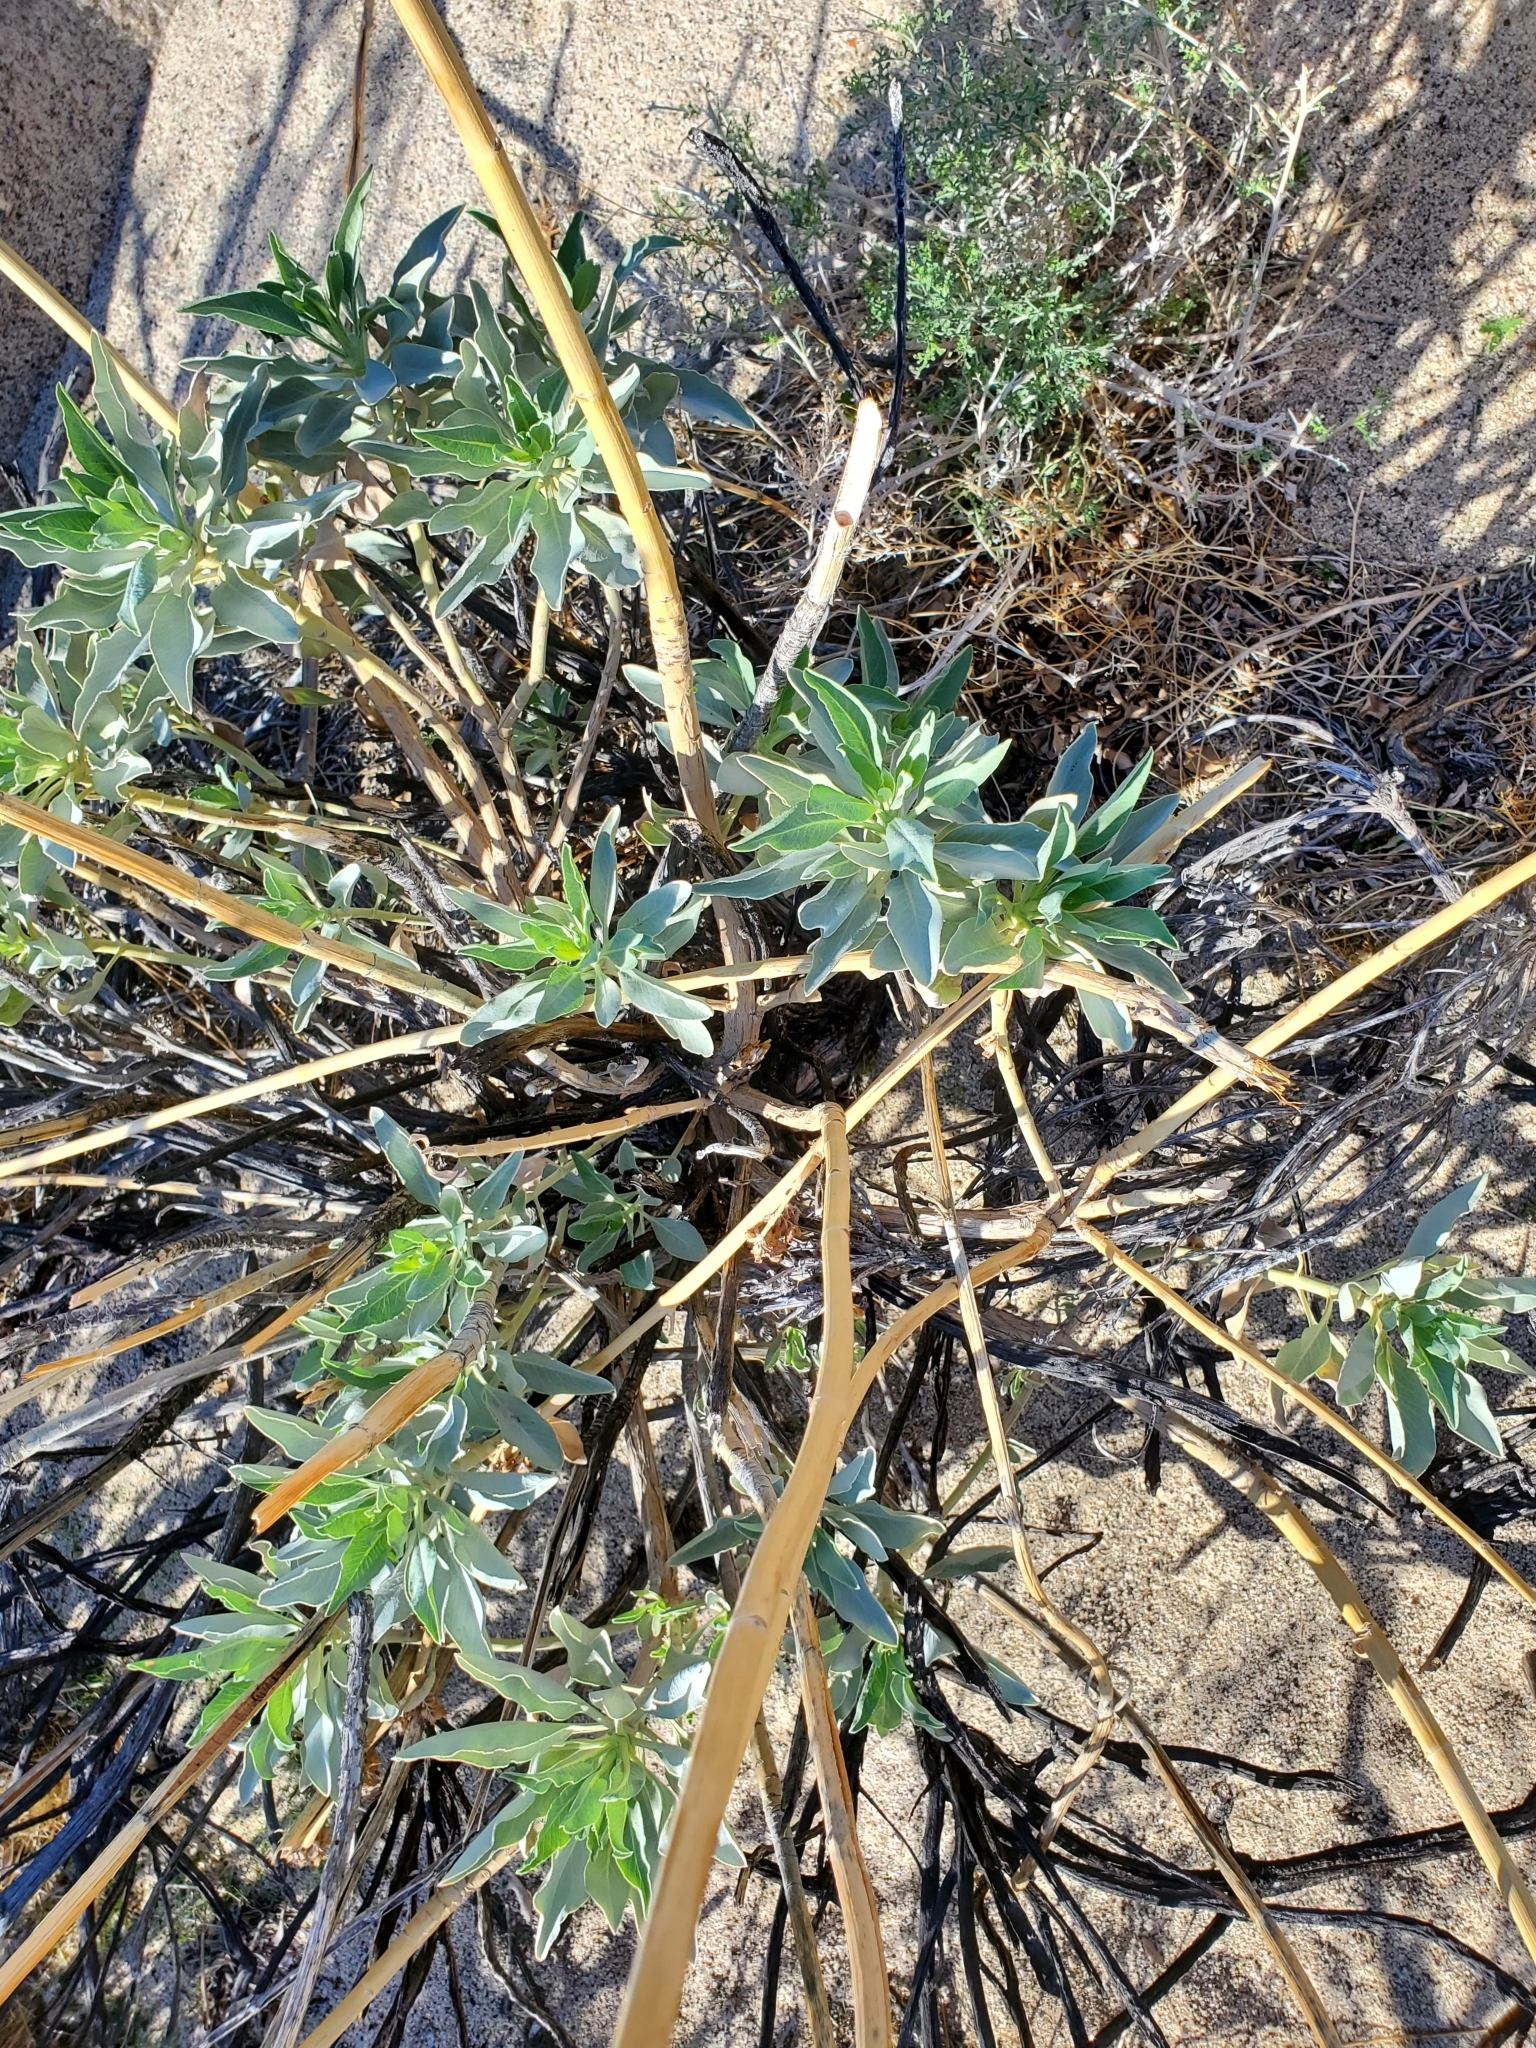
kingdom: Plantae
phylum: Tracheophyta
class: Magnoliopsida
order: Lamiales
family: Lamiaceae
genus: Salvia
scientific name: Salvia apiana
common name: White sage
